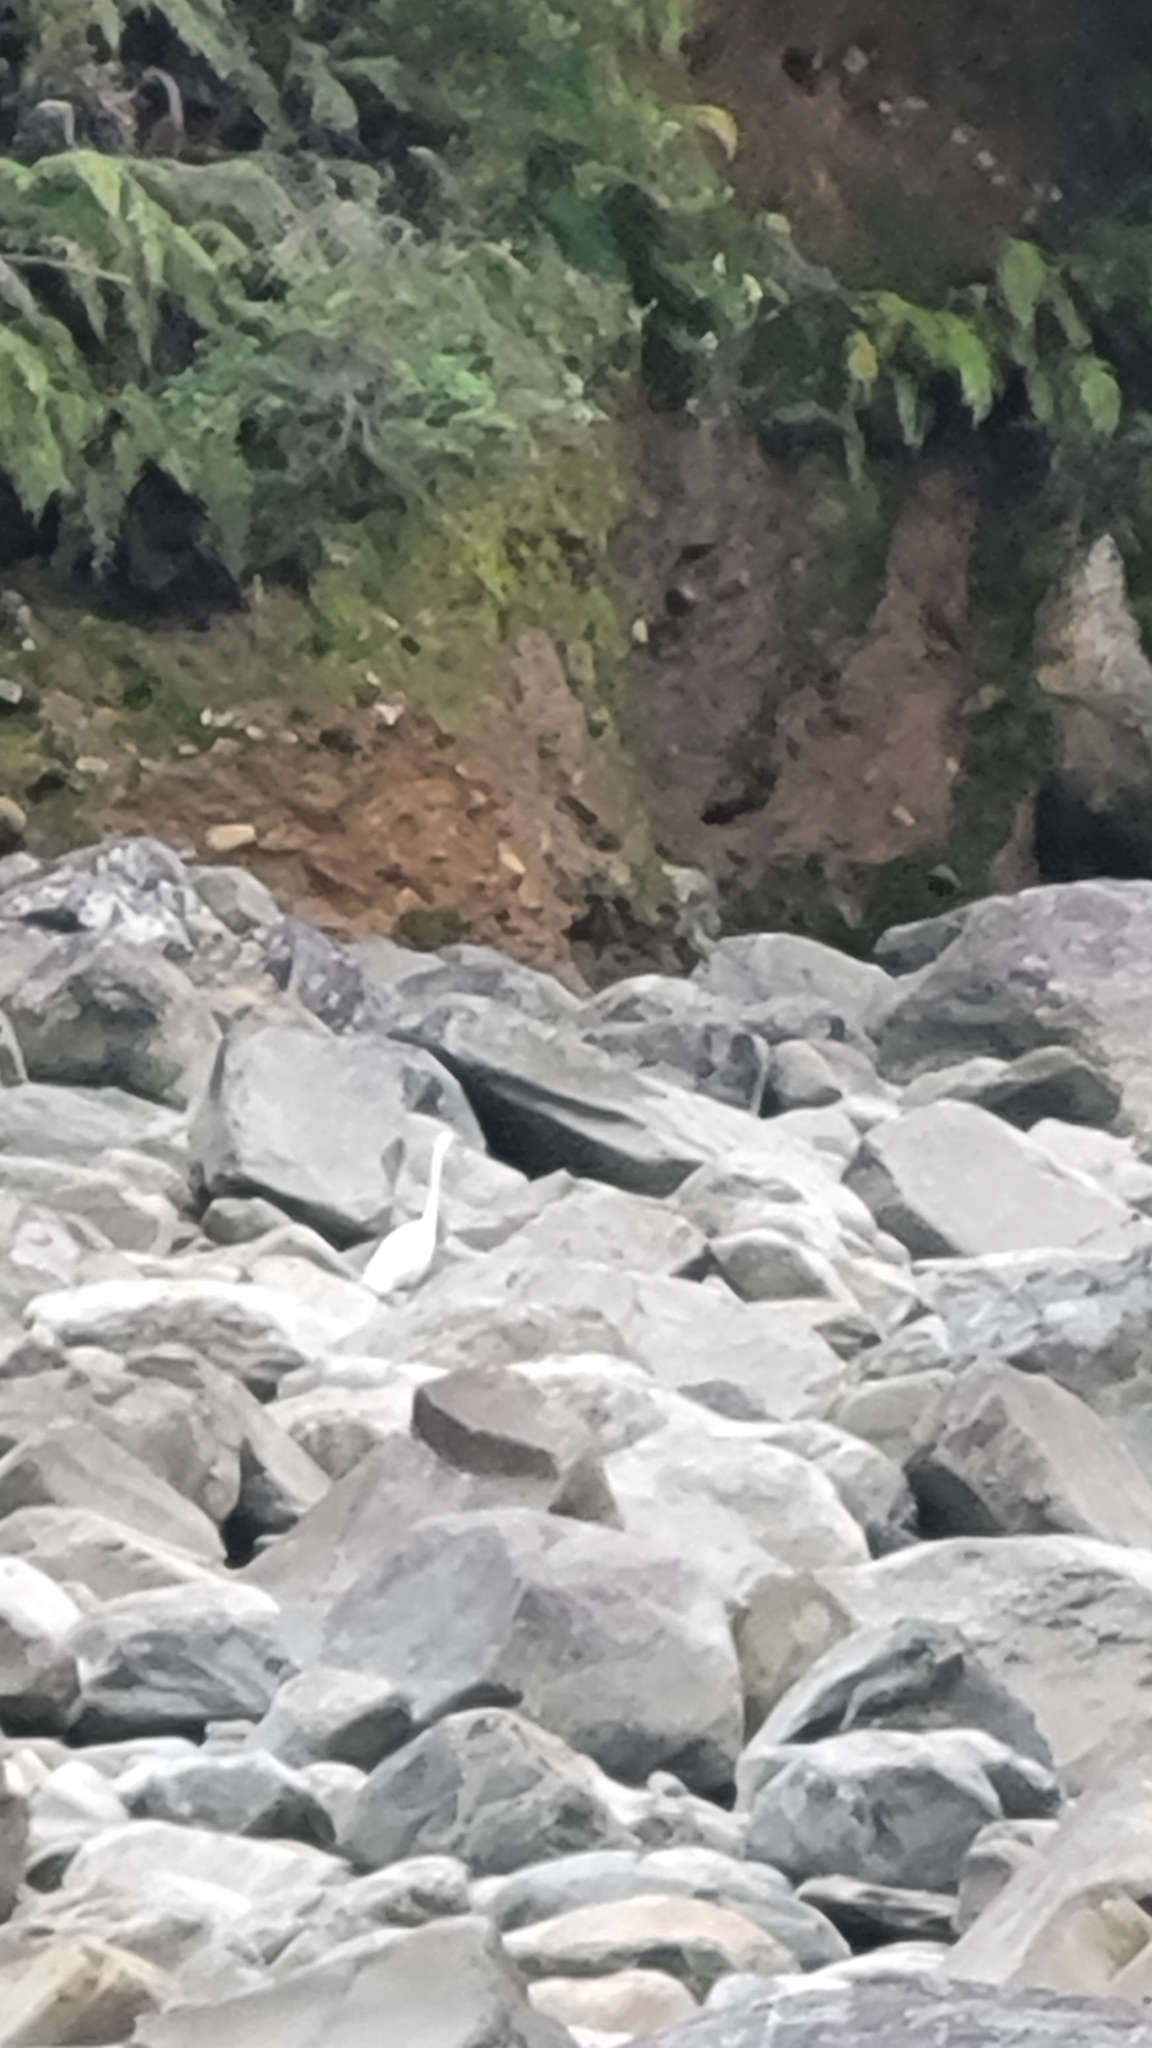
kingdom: Animalia
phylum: Chordata
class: Aves
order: Pelecaniformes
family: Ardeidae
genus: Ardea
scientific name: Ardea modesta
